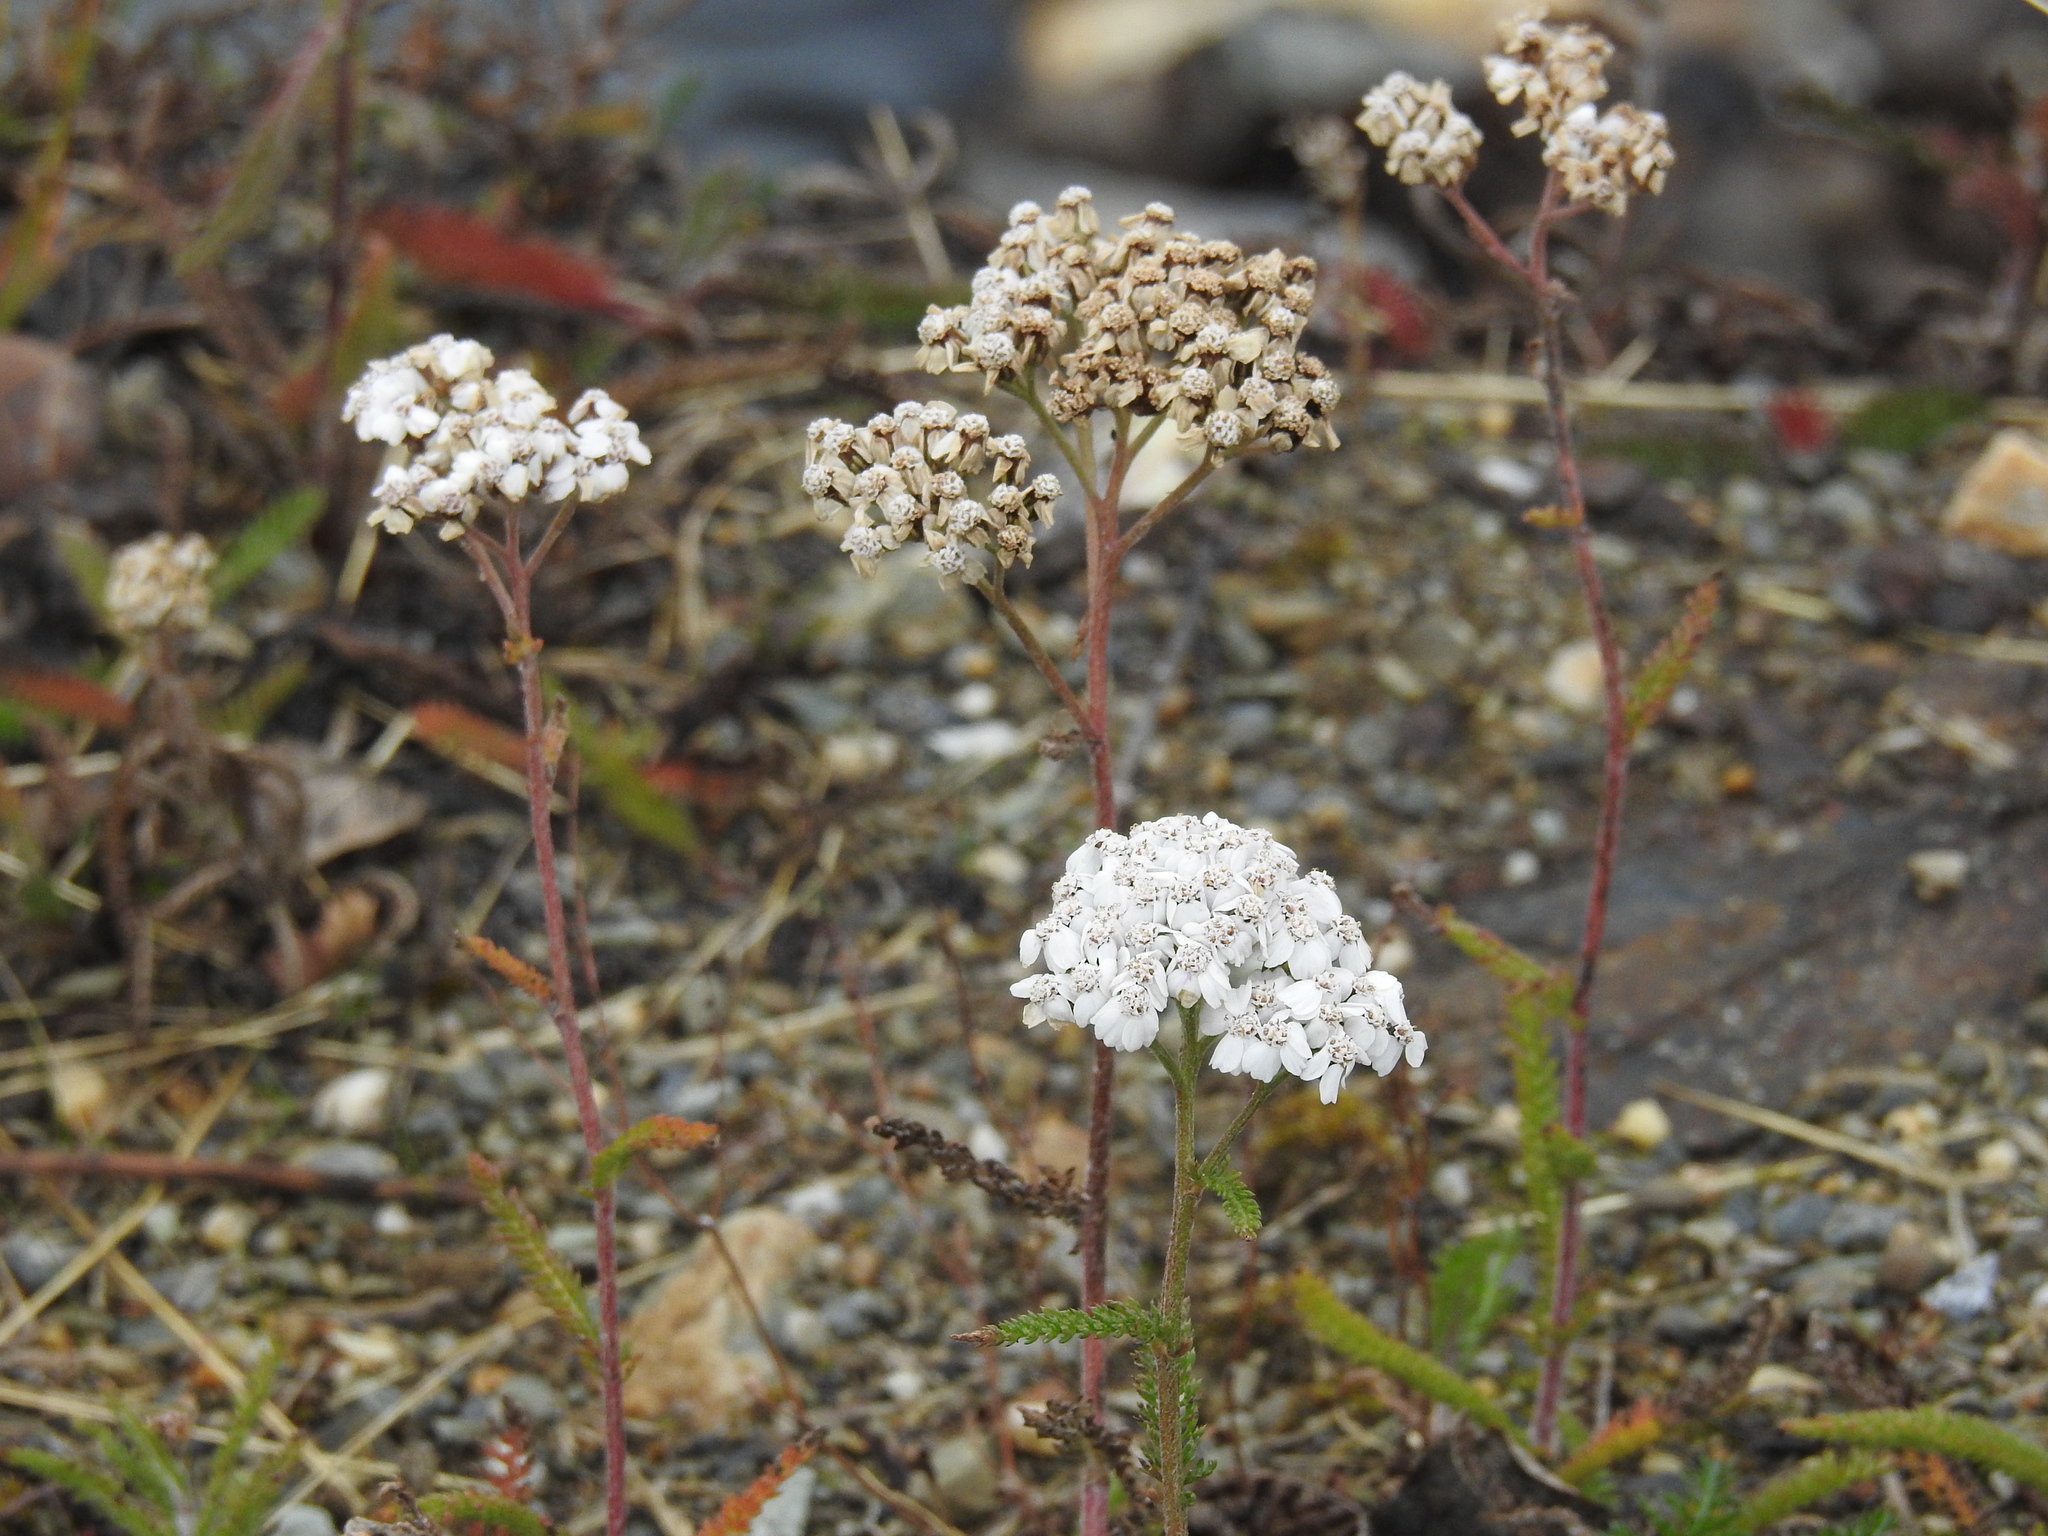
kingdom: Plantae
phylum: Tracheophyta
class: Magnoliopsida
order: Asterales
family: Asteraceae
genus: Achillea
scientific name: Achillea millefolium
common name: Yarrow
